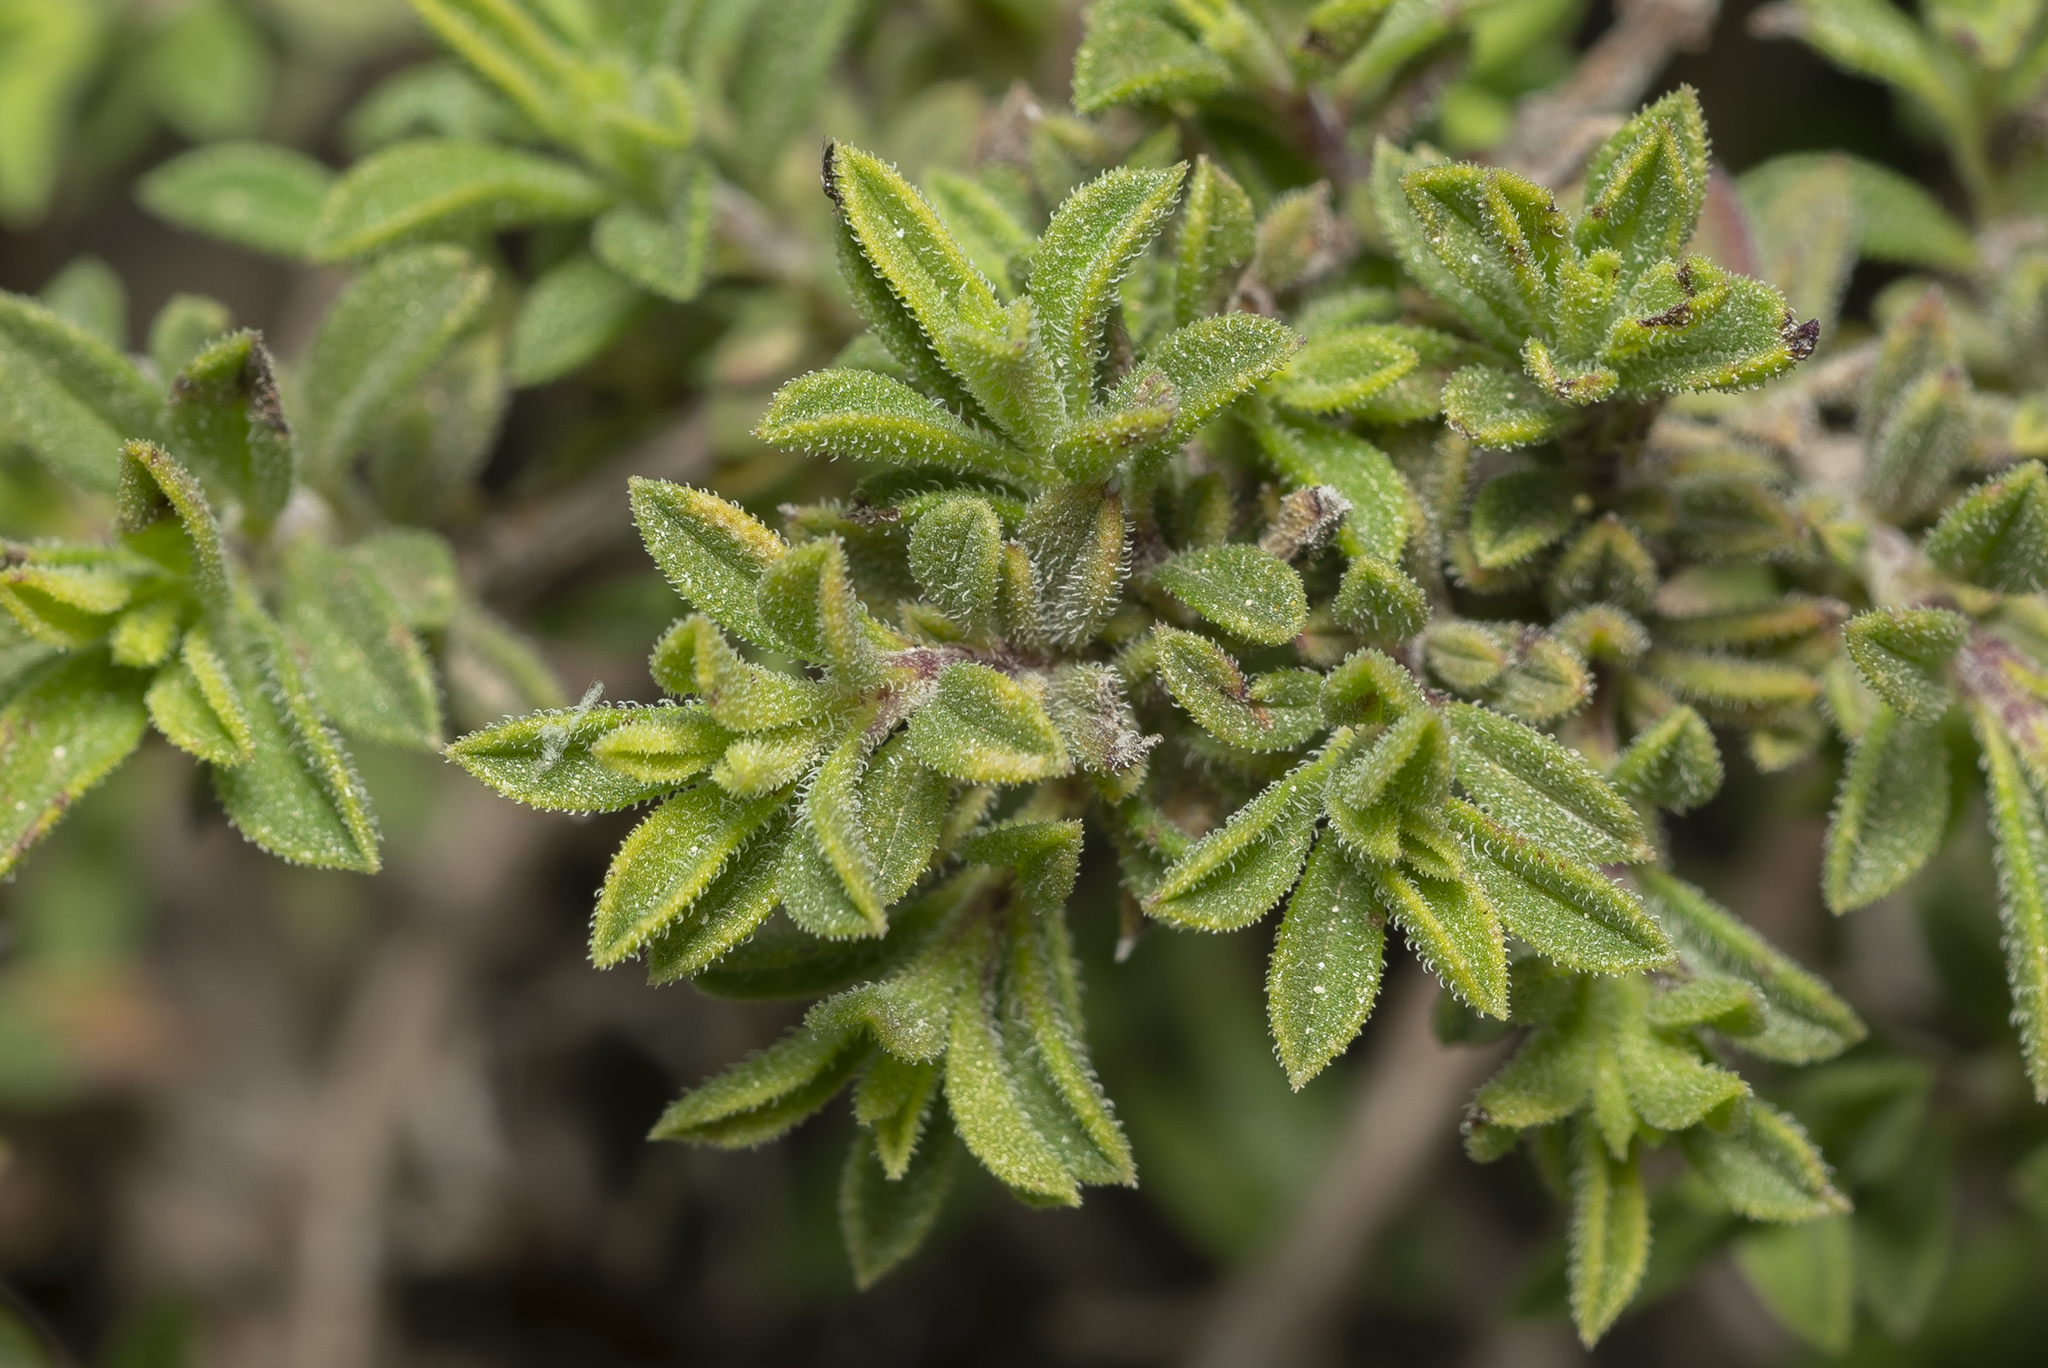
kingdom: Plantae
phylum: Tracheophyta
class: Magnoliopsida
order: Lamiales
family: Lamiaceae
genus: Satureja
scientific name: Satureja thymbra
